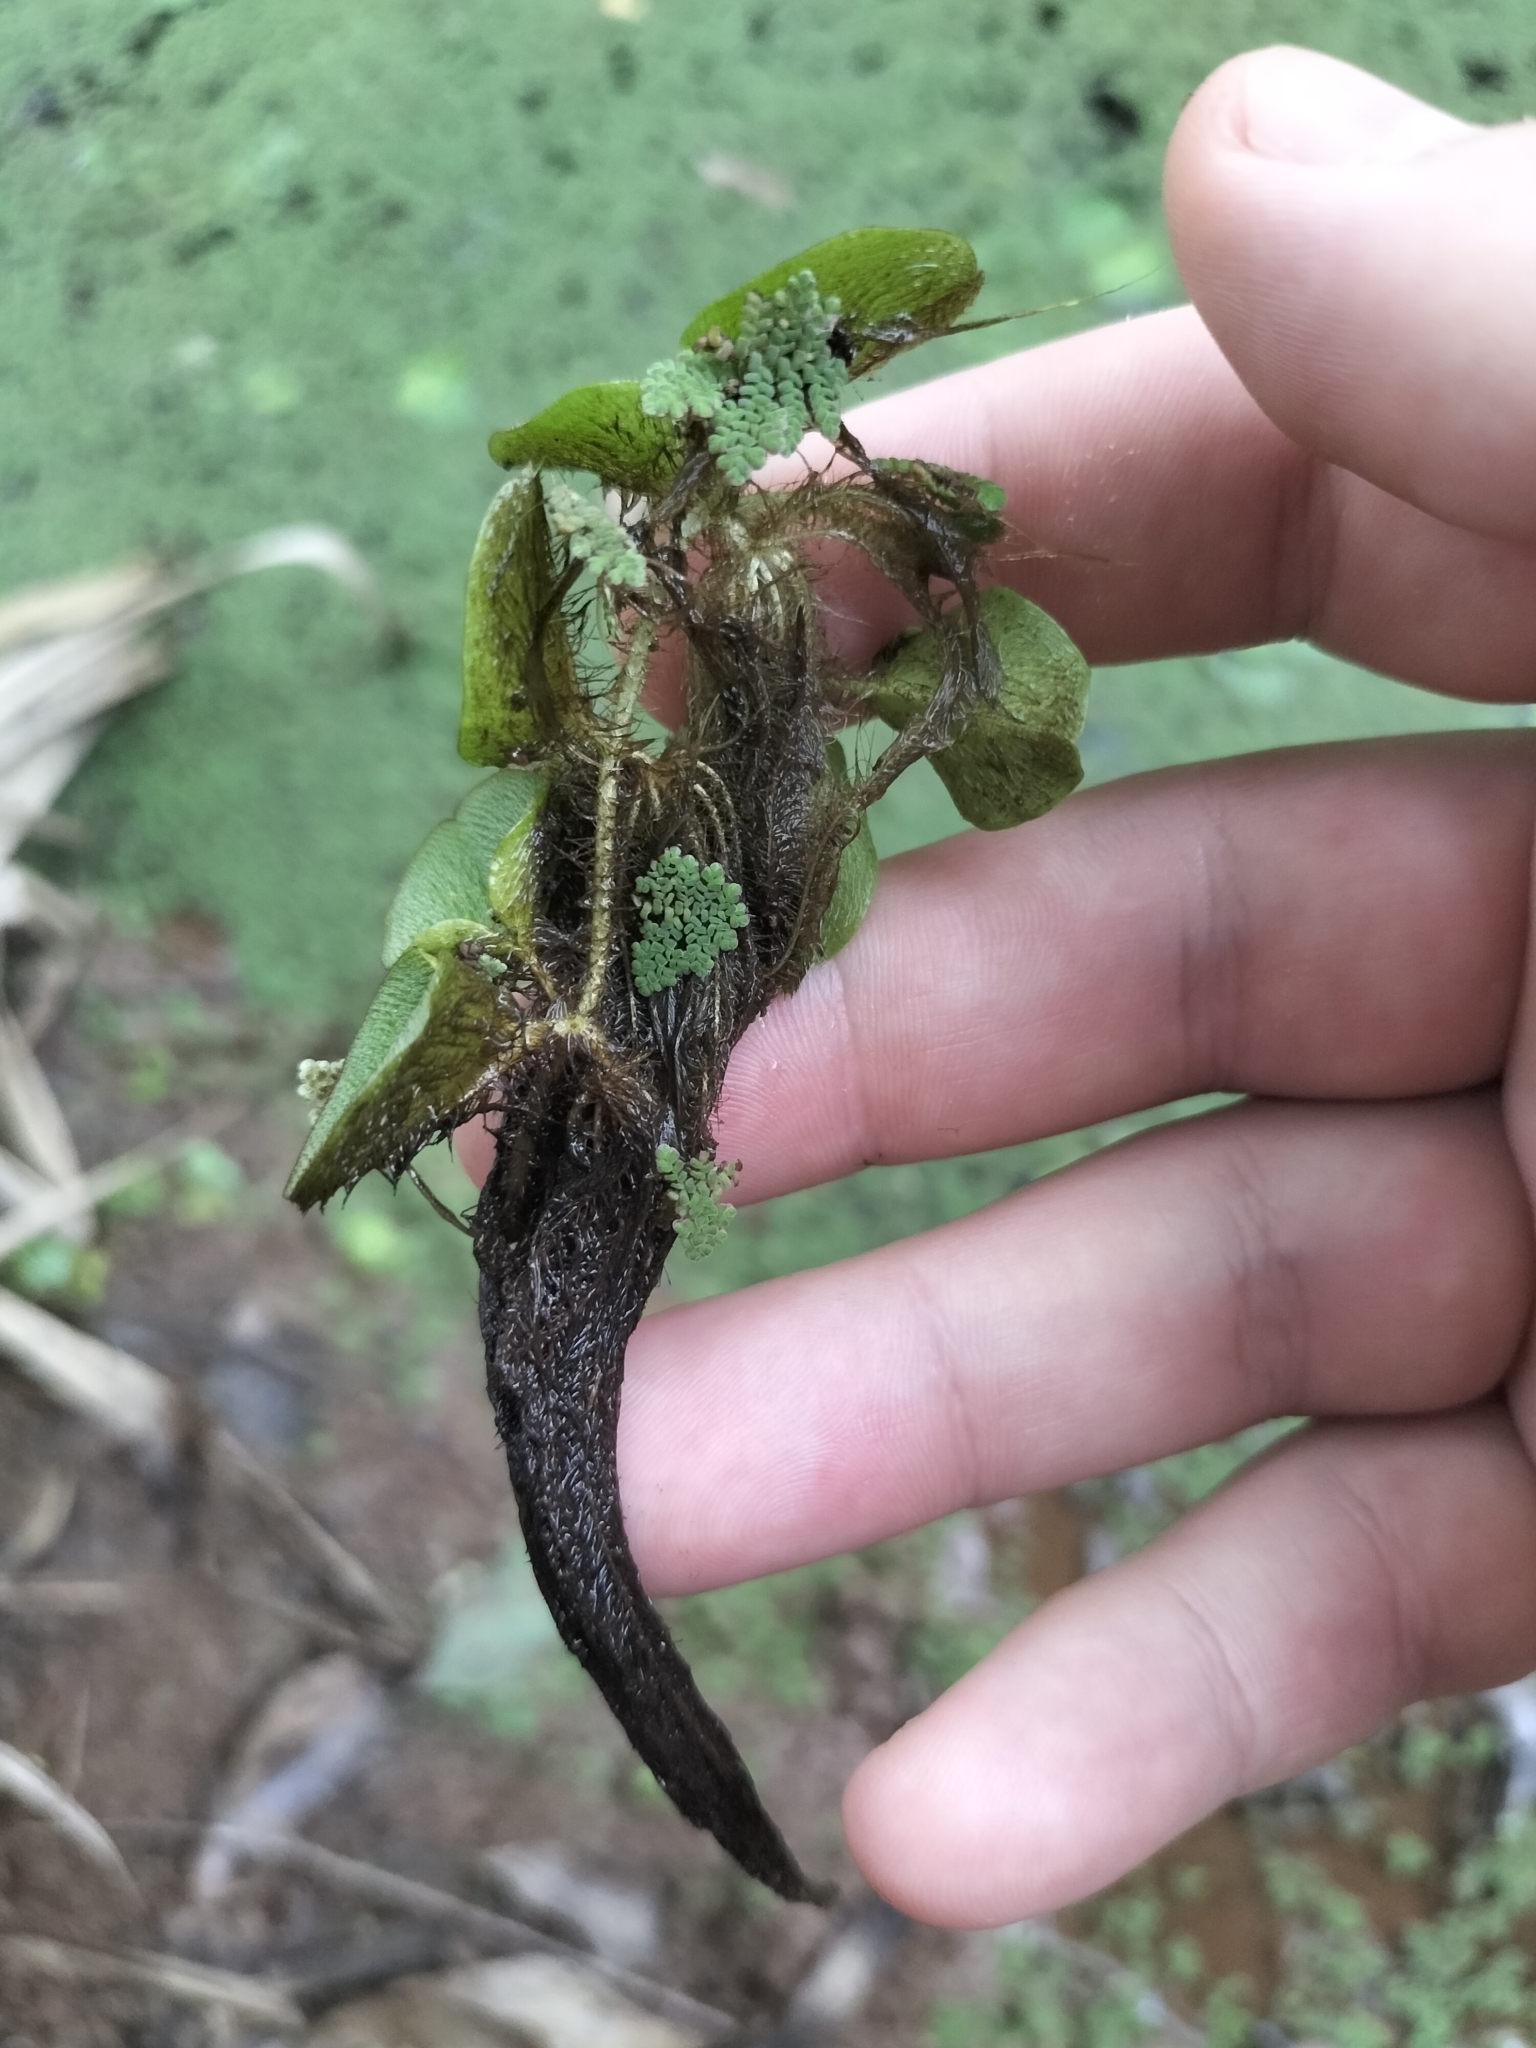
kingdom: Plantae
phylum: Tracheophyta
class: Polypodiopsida
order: Salviniales
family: Salviniaceae
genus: Salvinia
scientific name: Salvinia molesta
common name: Kariba weed
